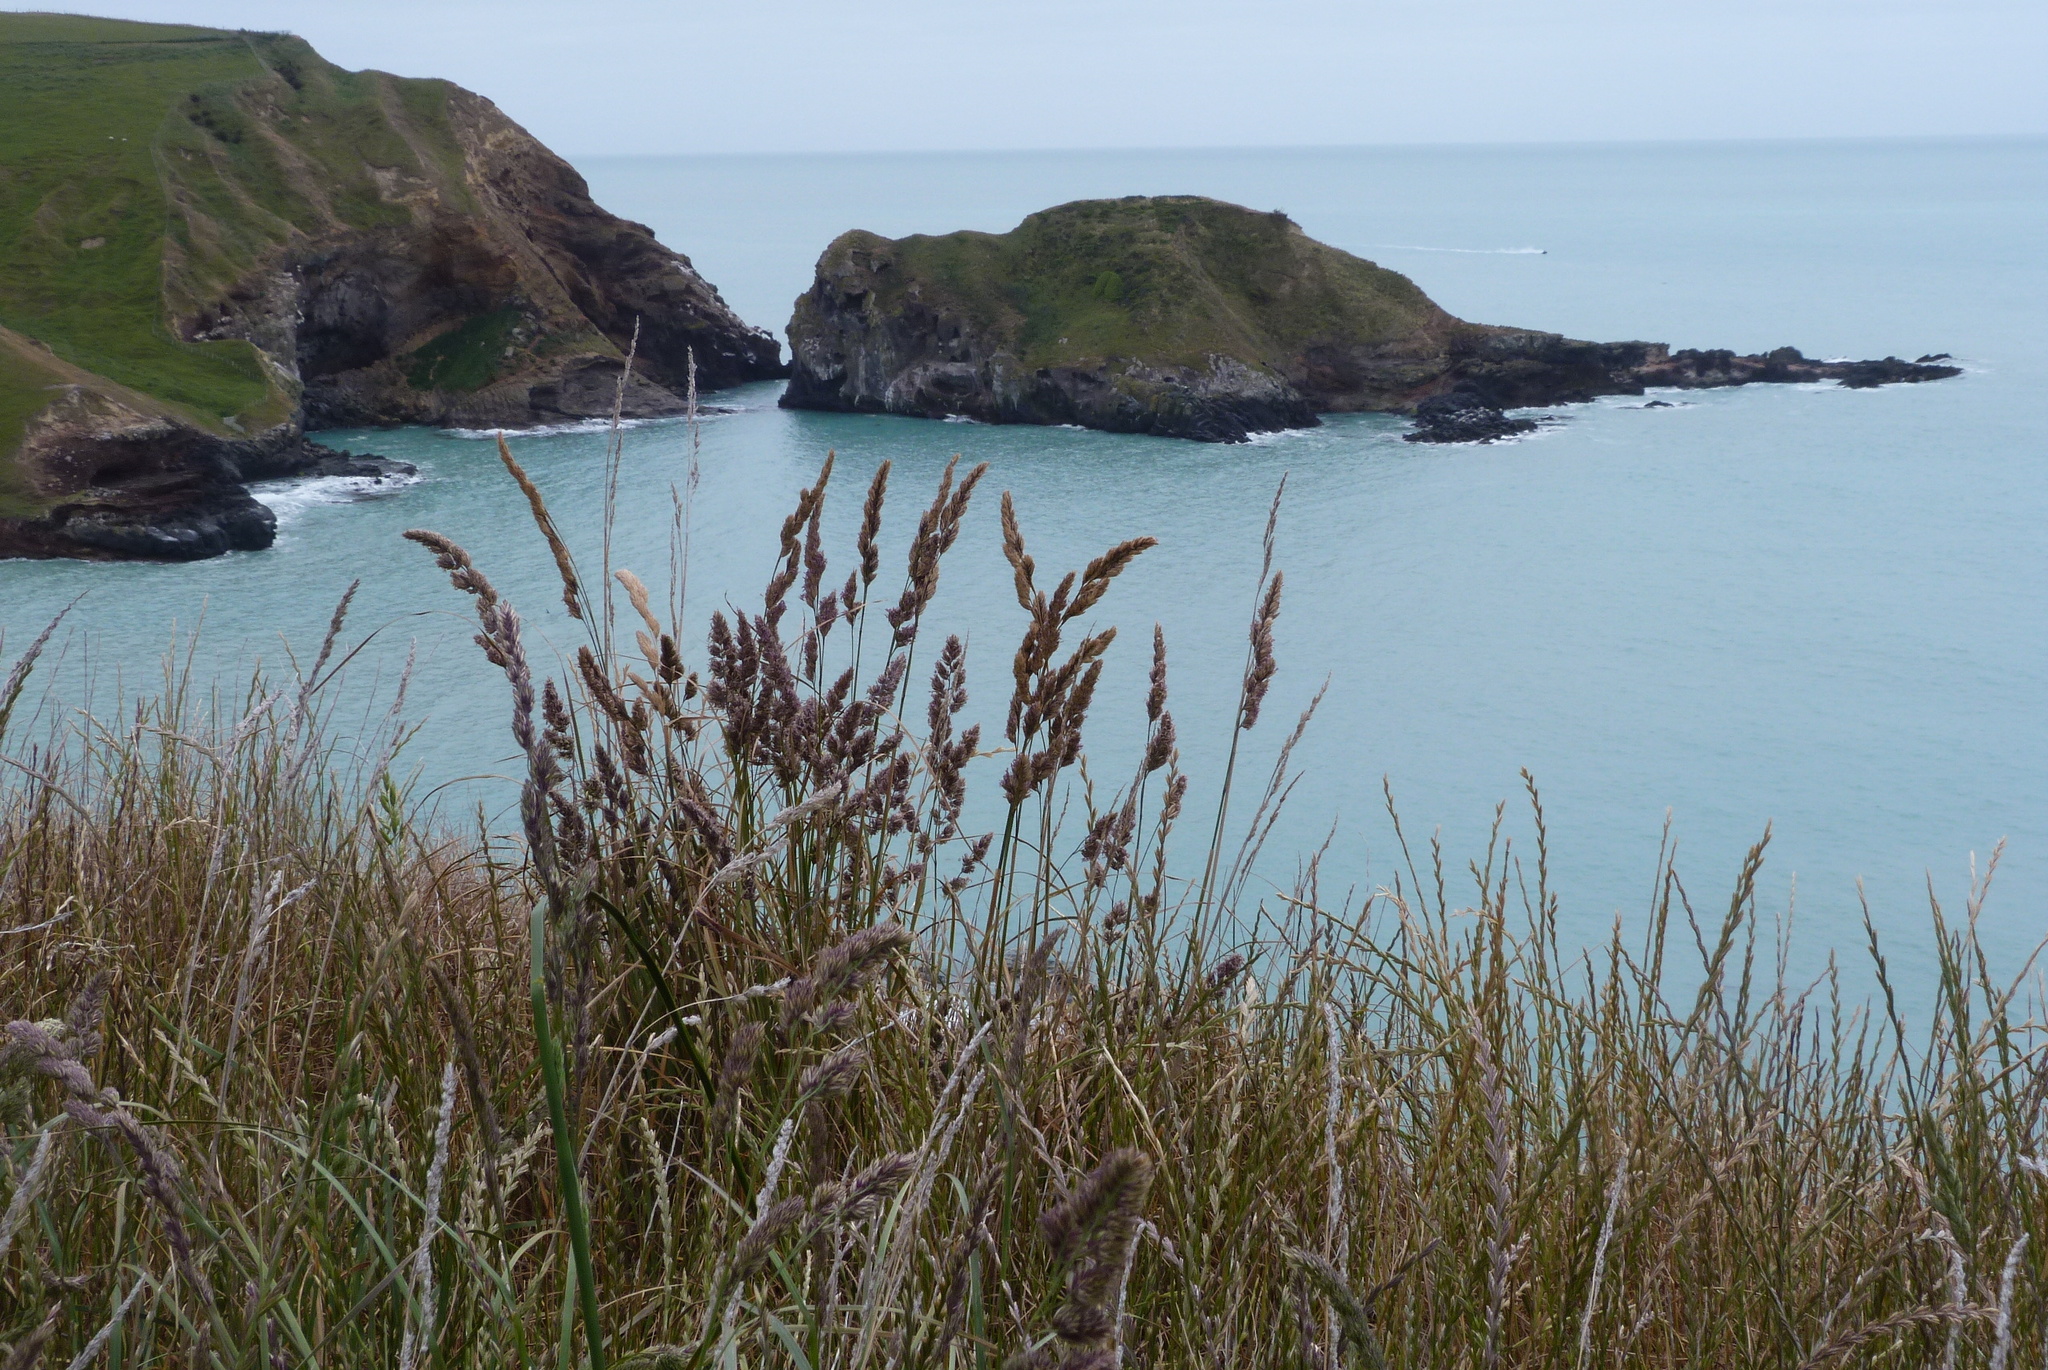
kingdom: Plantae
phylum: Tracheophyta
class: Liliopsida
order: Poales
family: Poaceae
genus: Dactylis
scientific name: Dactylis glomerata
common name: Orchardgrass
